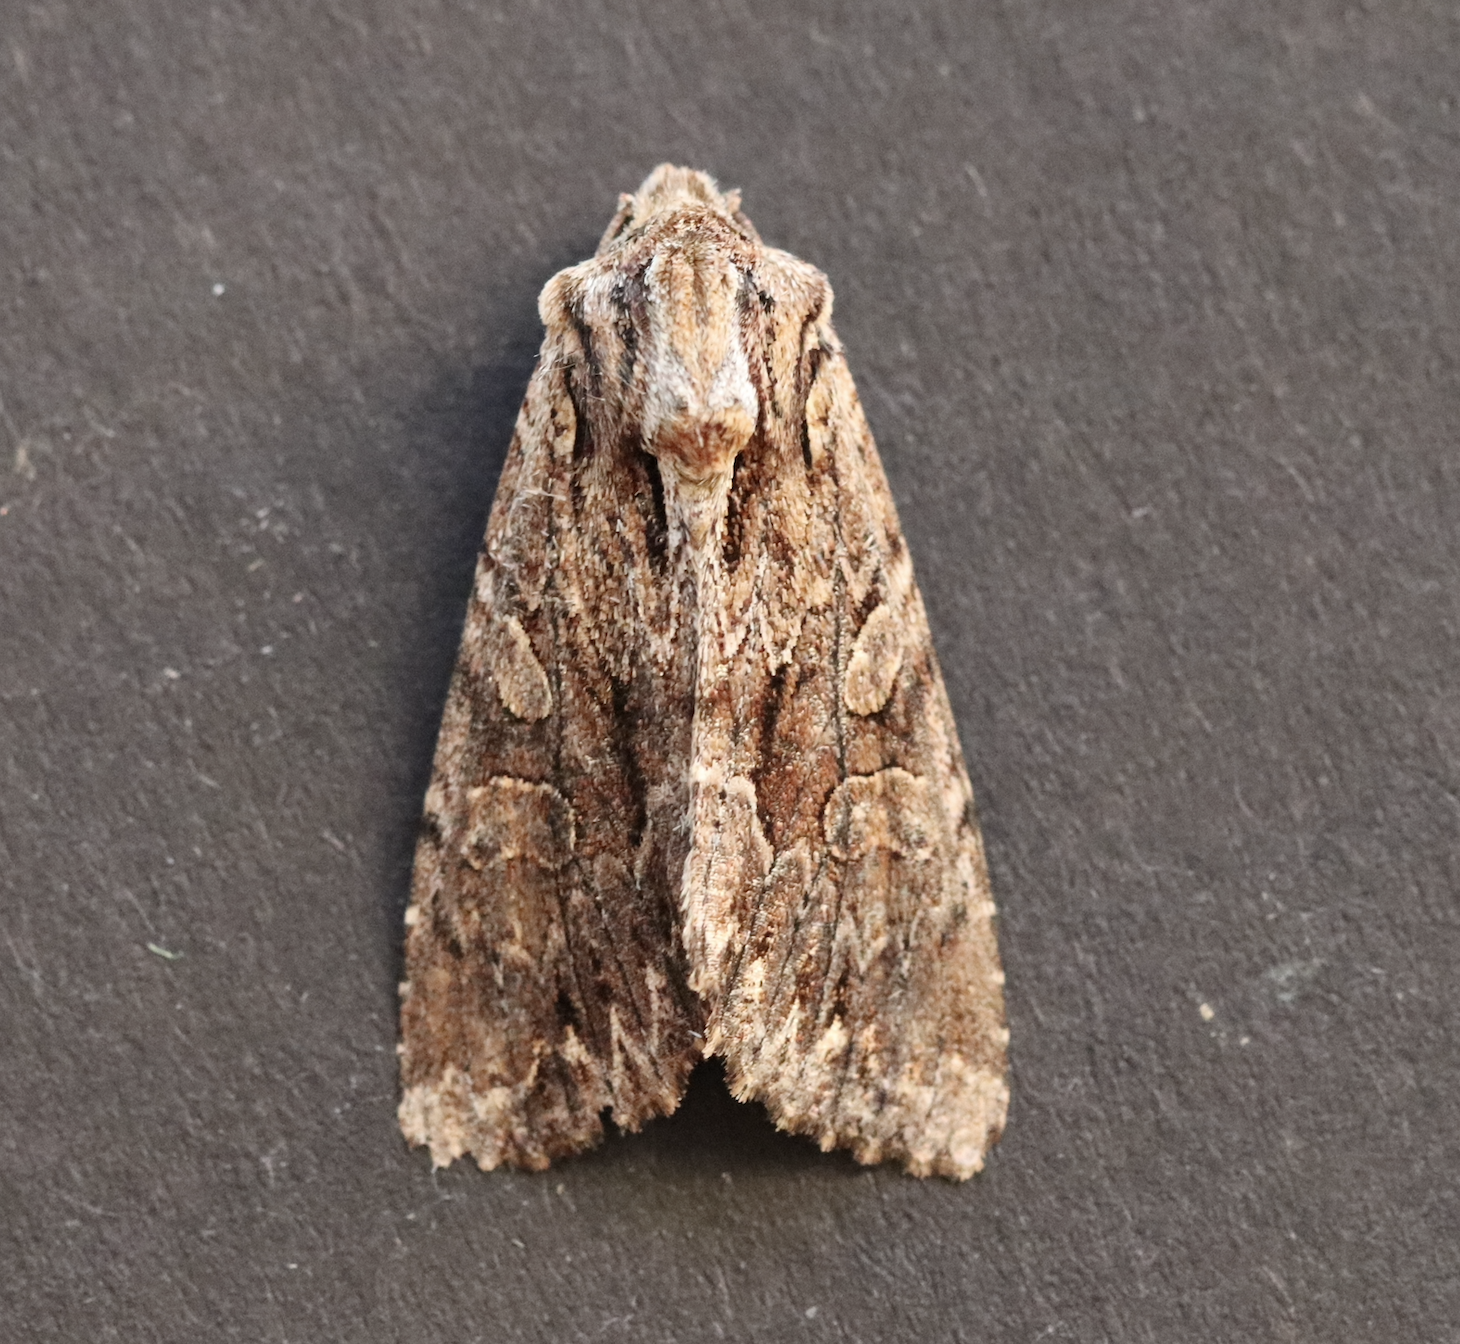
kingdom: Animalia
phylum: Arthropoda
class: Insecta
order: Lepidoptera
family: Noctuidae
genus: Apamea
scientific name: Apamea monoglypha
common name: Dark arches
